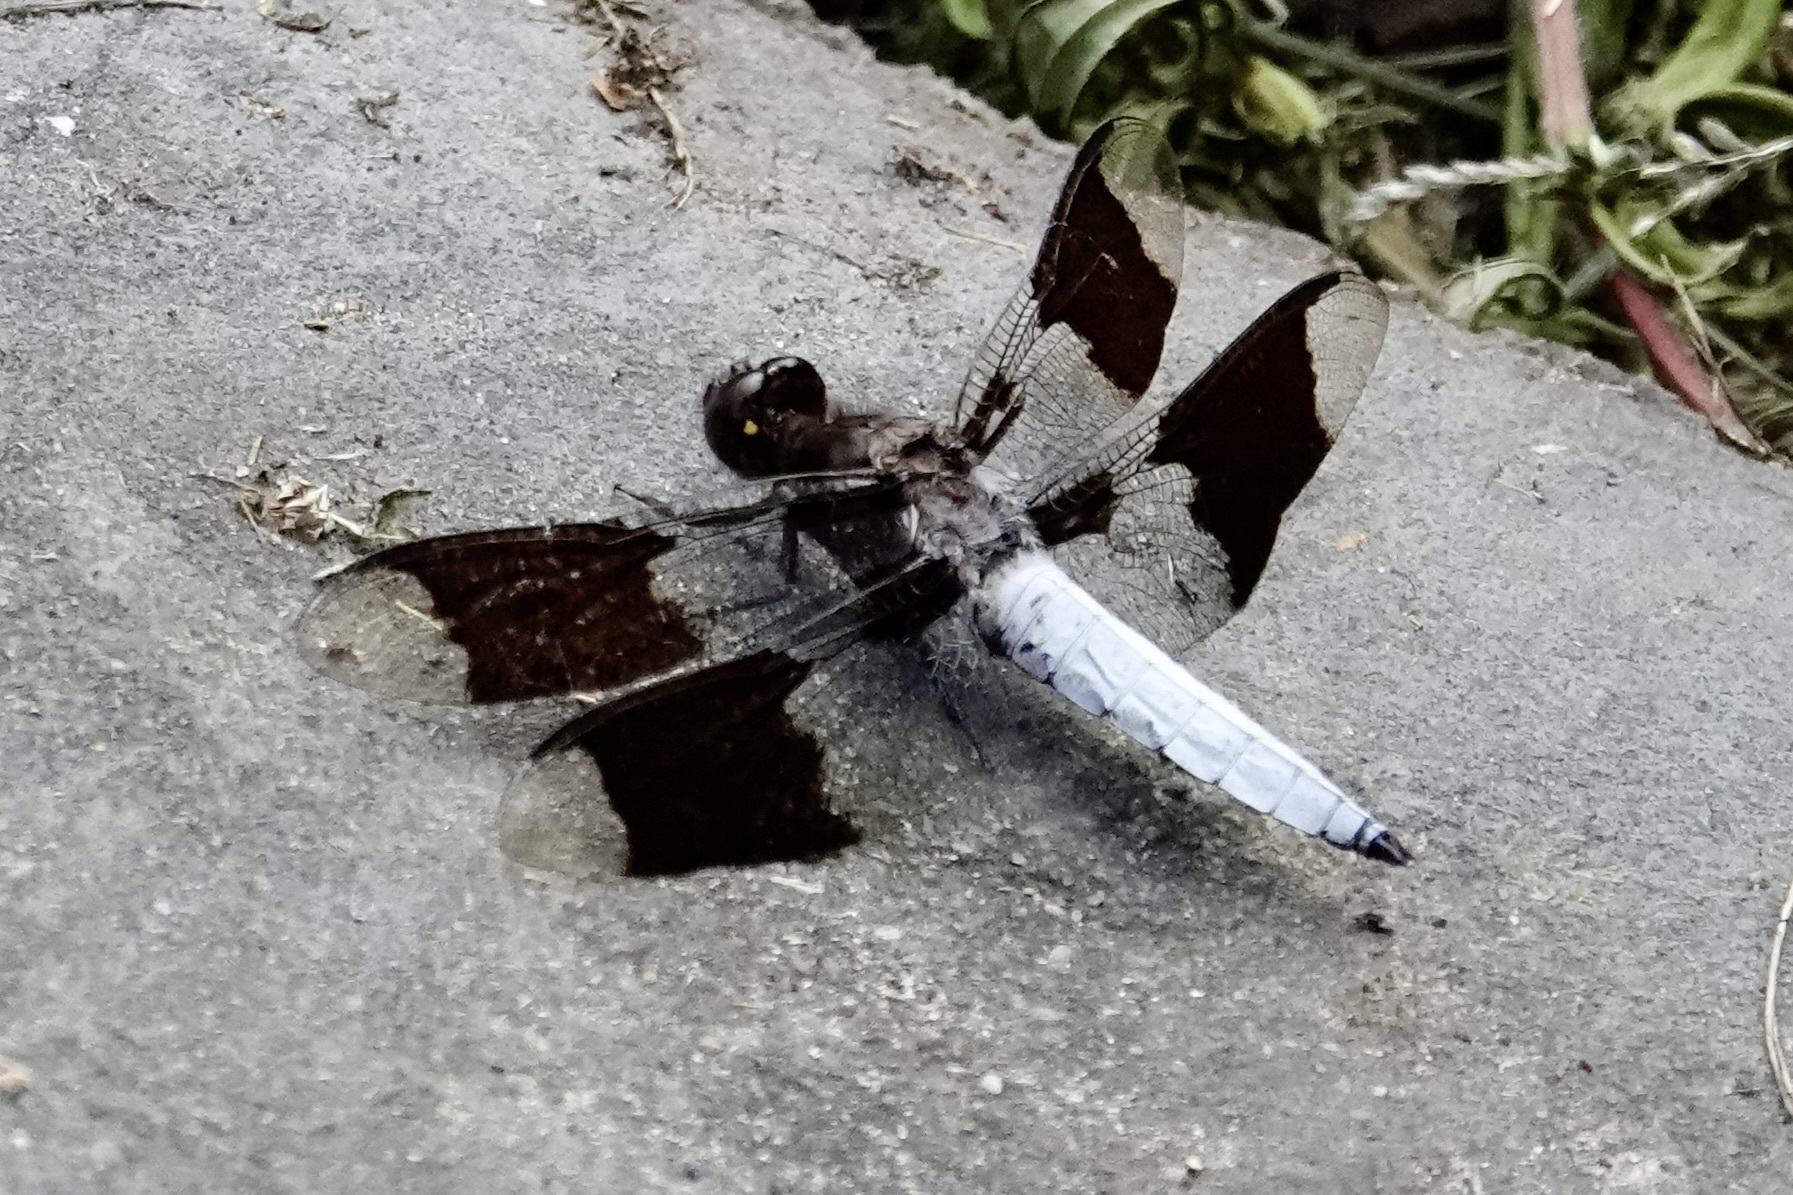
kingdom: Animalia
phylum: Arthropoda
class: Insecta
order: Odonata
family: Libellulidae
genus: Plathemis
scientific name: Plathemis lydia
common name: Common whitetail
